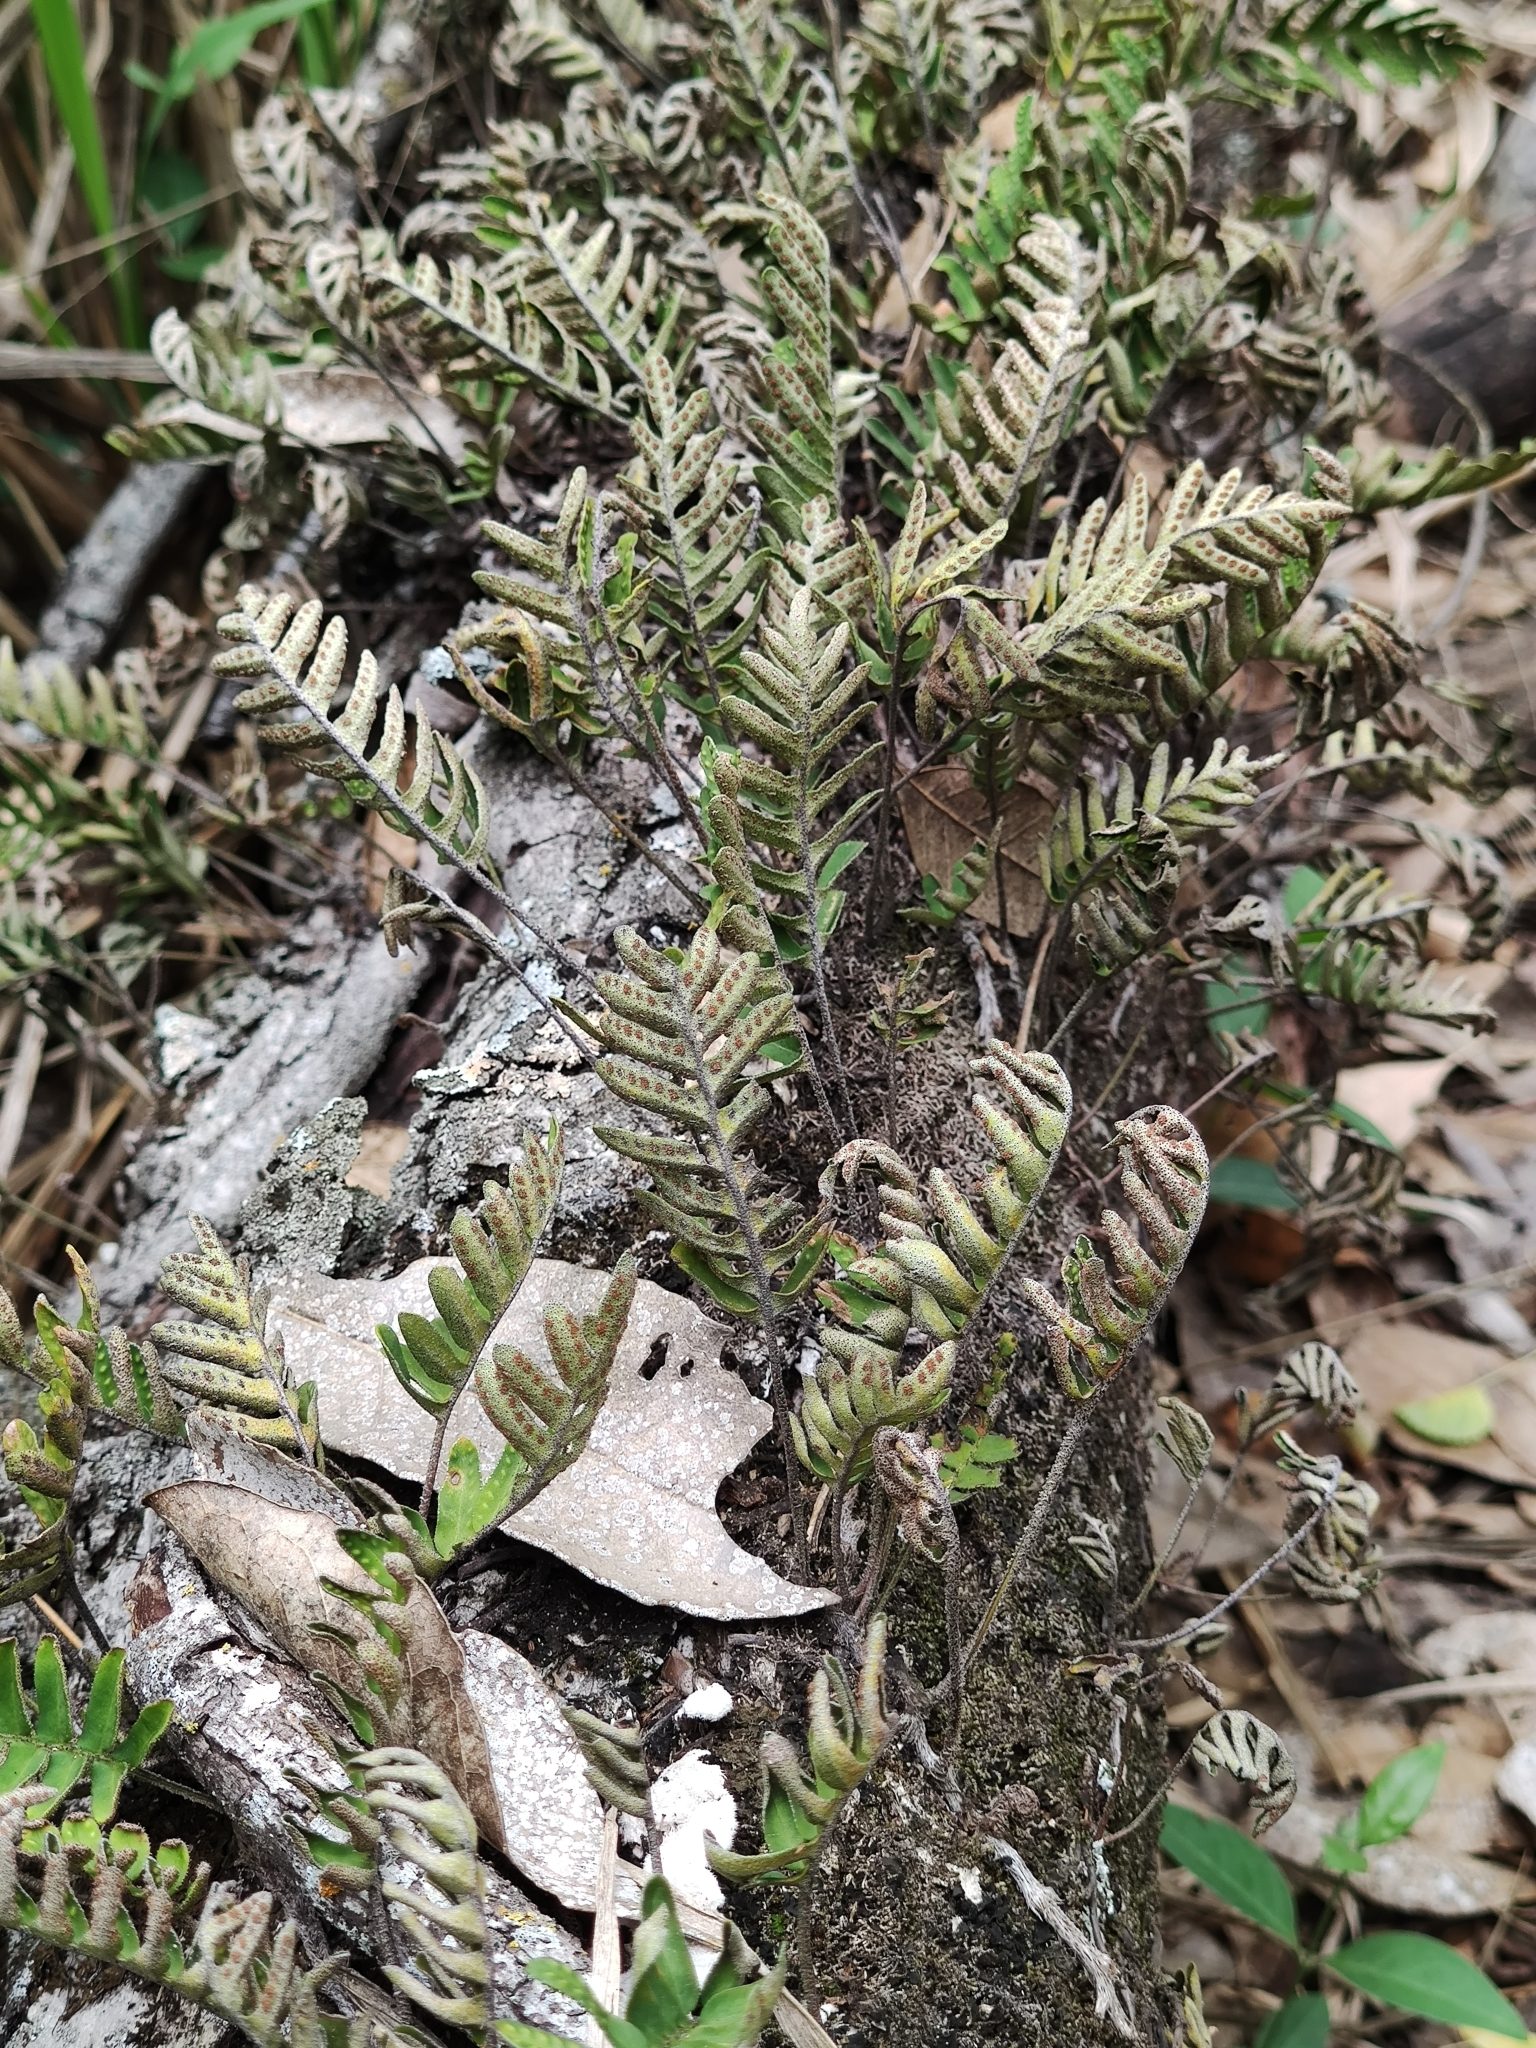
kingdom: Plantae
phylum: Tracheophyta
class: Polypodiopsida
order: Polypodiales
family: Polypodiaceae
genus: Pleopeltis
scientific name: Pleopeltis michauxiana
